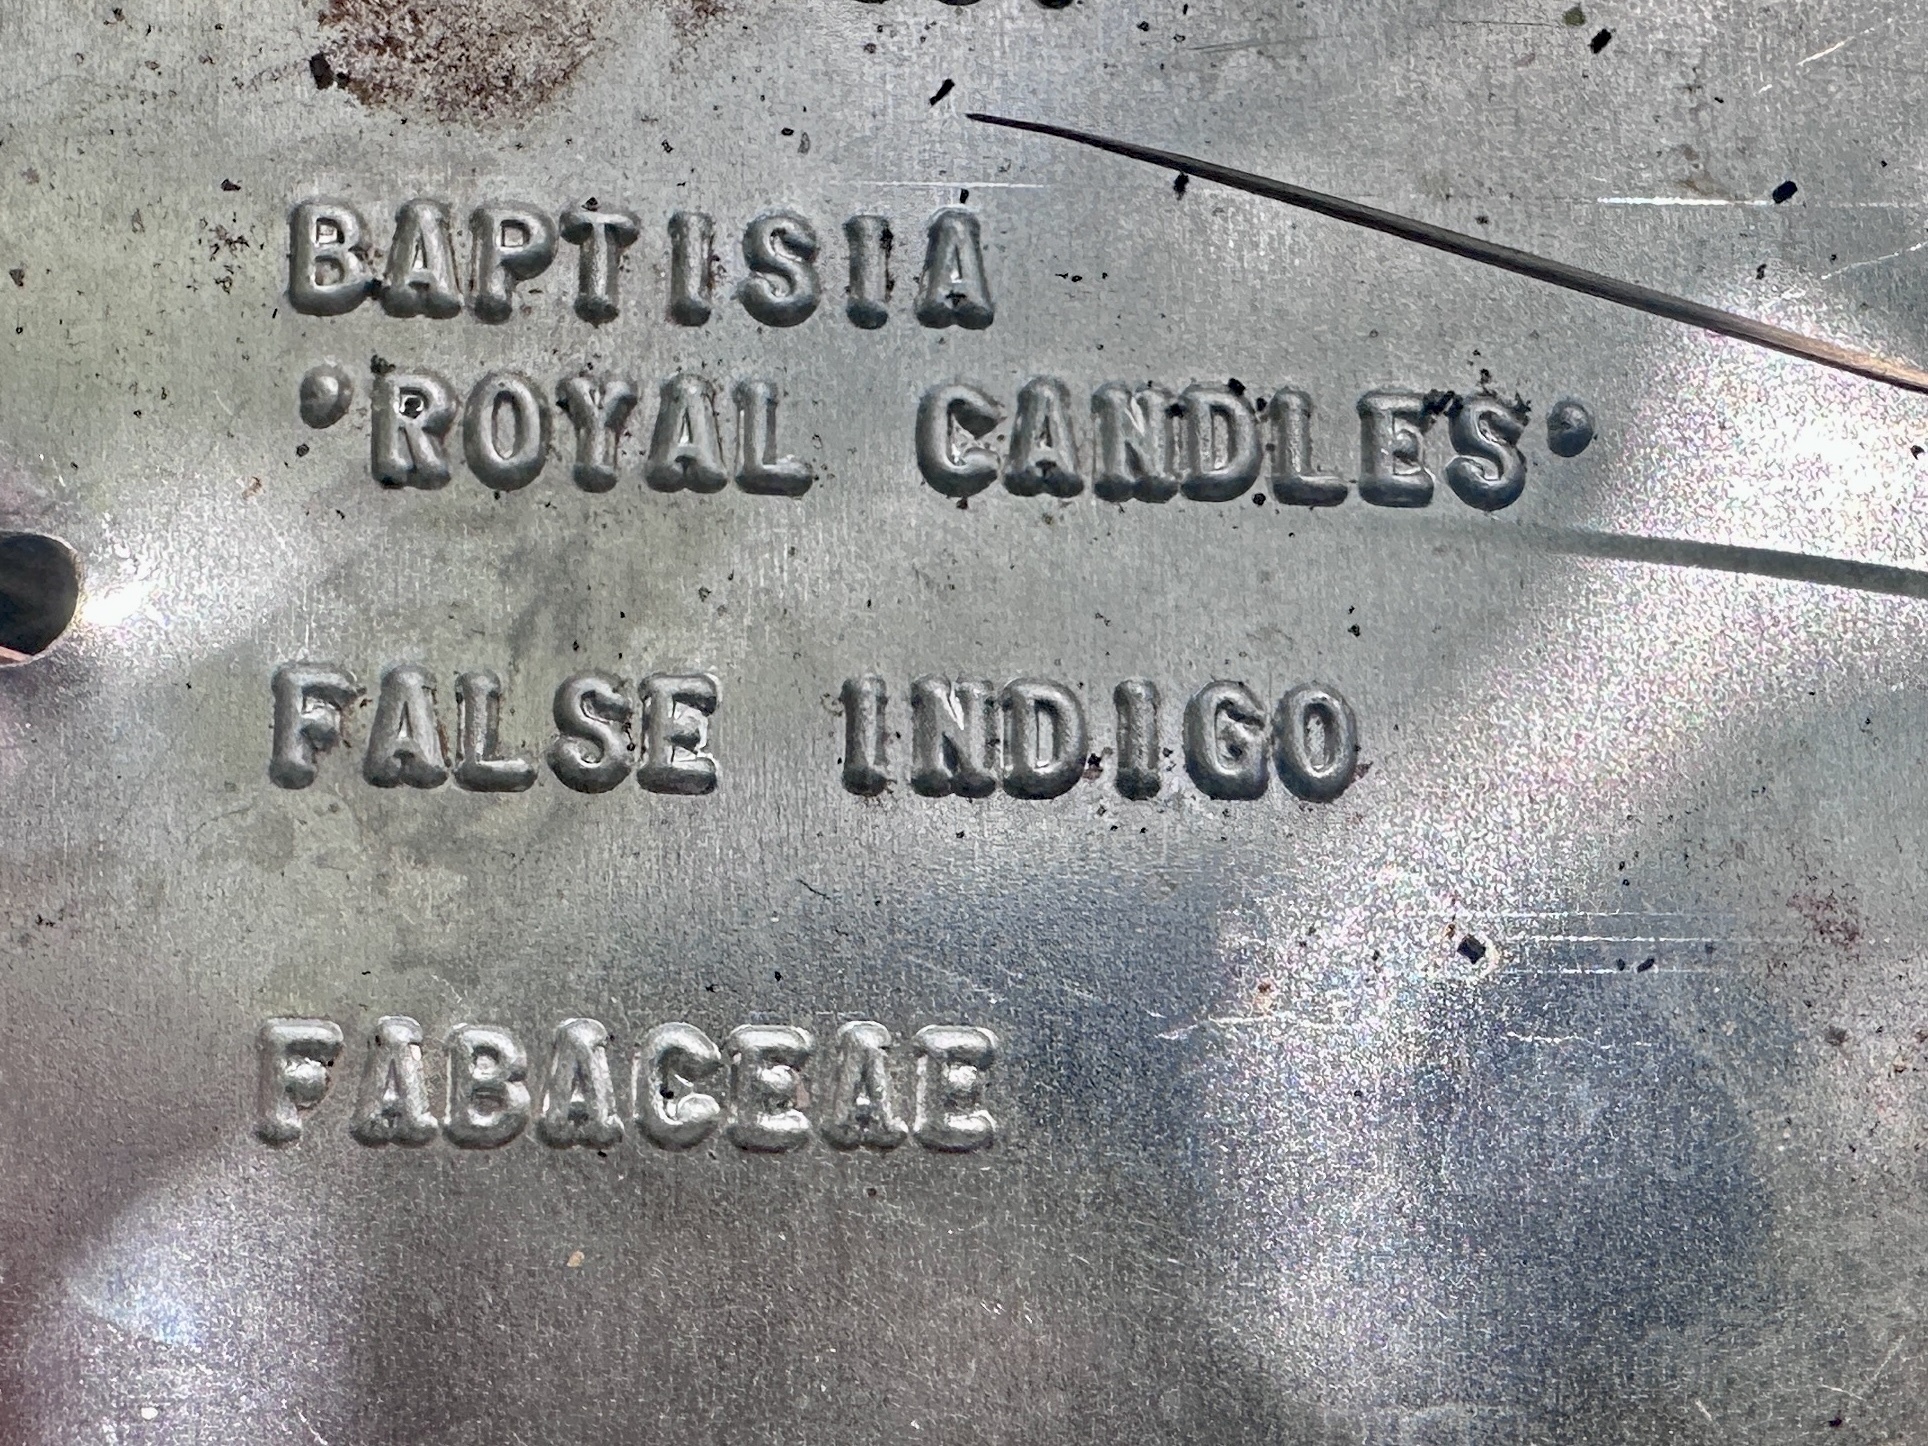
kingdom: Animalia
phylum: Arthropoda
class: Insecta
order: Lepidoptera
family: Saturniidae
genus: Automeris
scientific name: Automeris io
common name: Io moth
